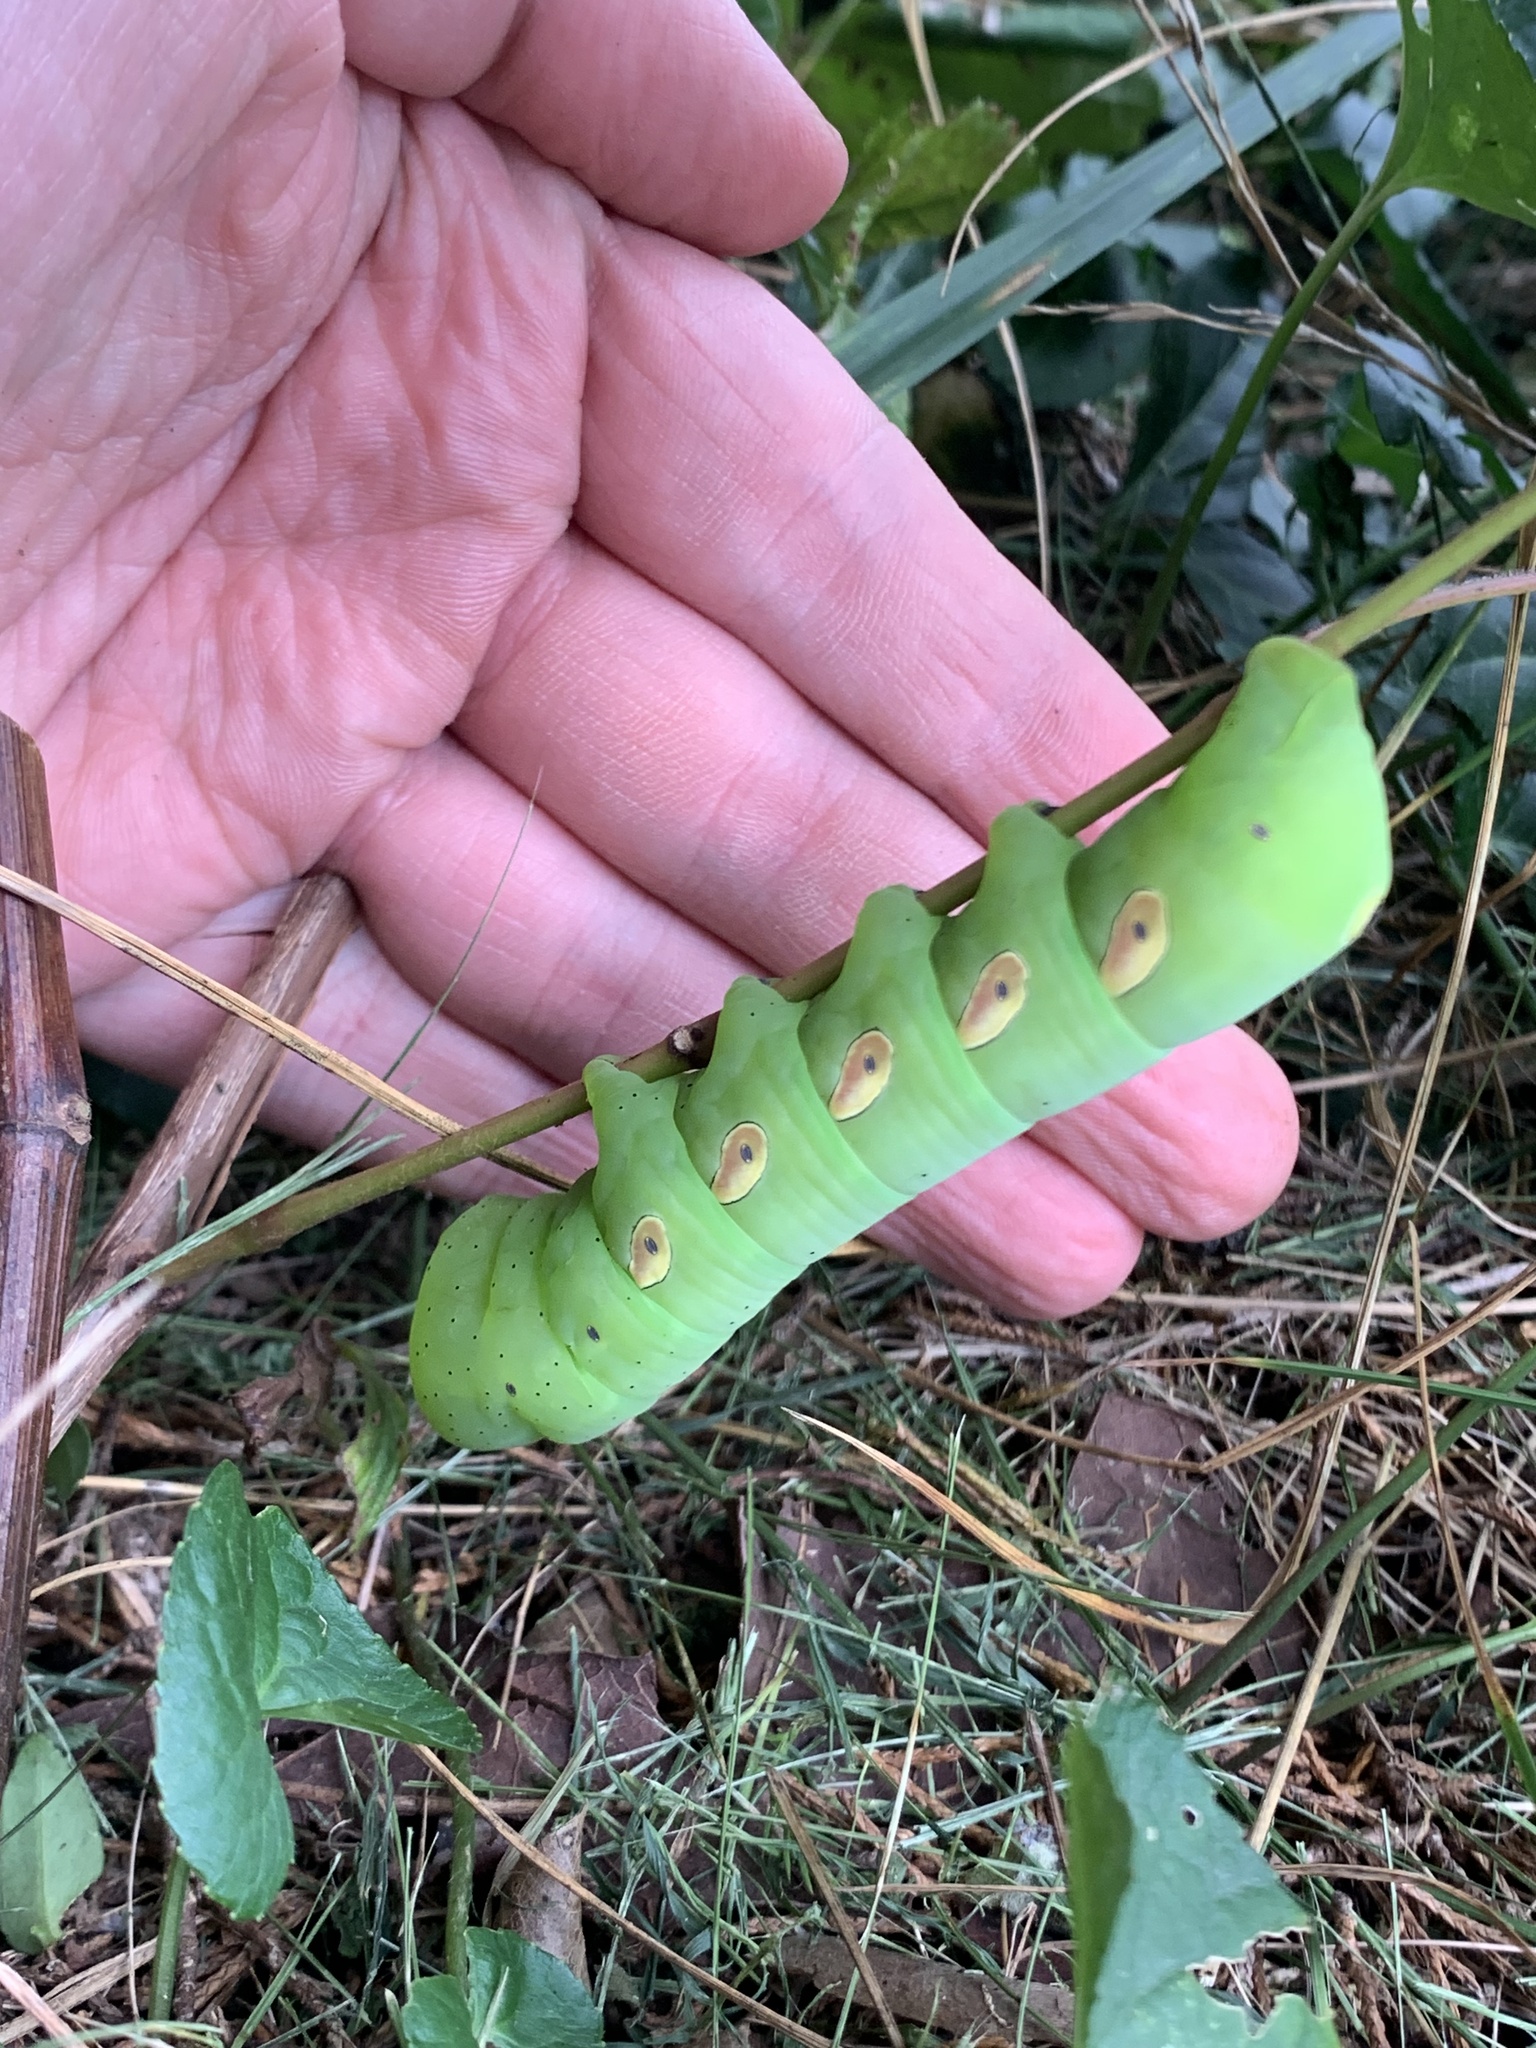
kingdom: Animalia
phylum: Arthropoda
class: Insecta
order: Lepidoptera
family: Sphingidae
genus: Eumorpha
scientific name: Eumorpha pandorus
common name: Pandora sphinx
